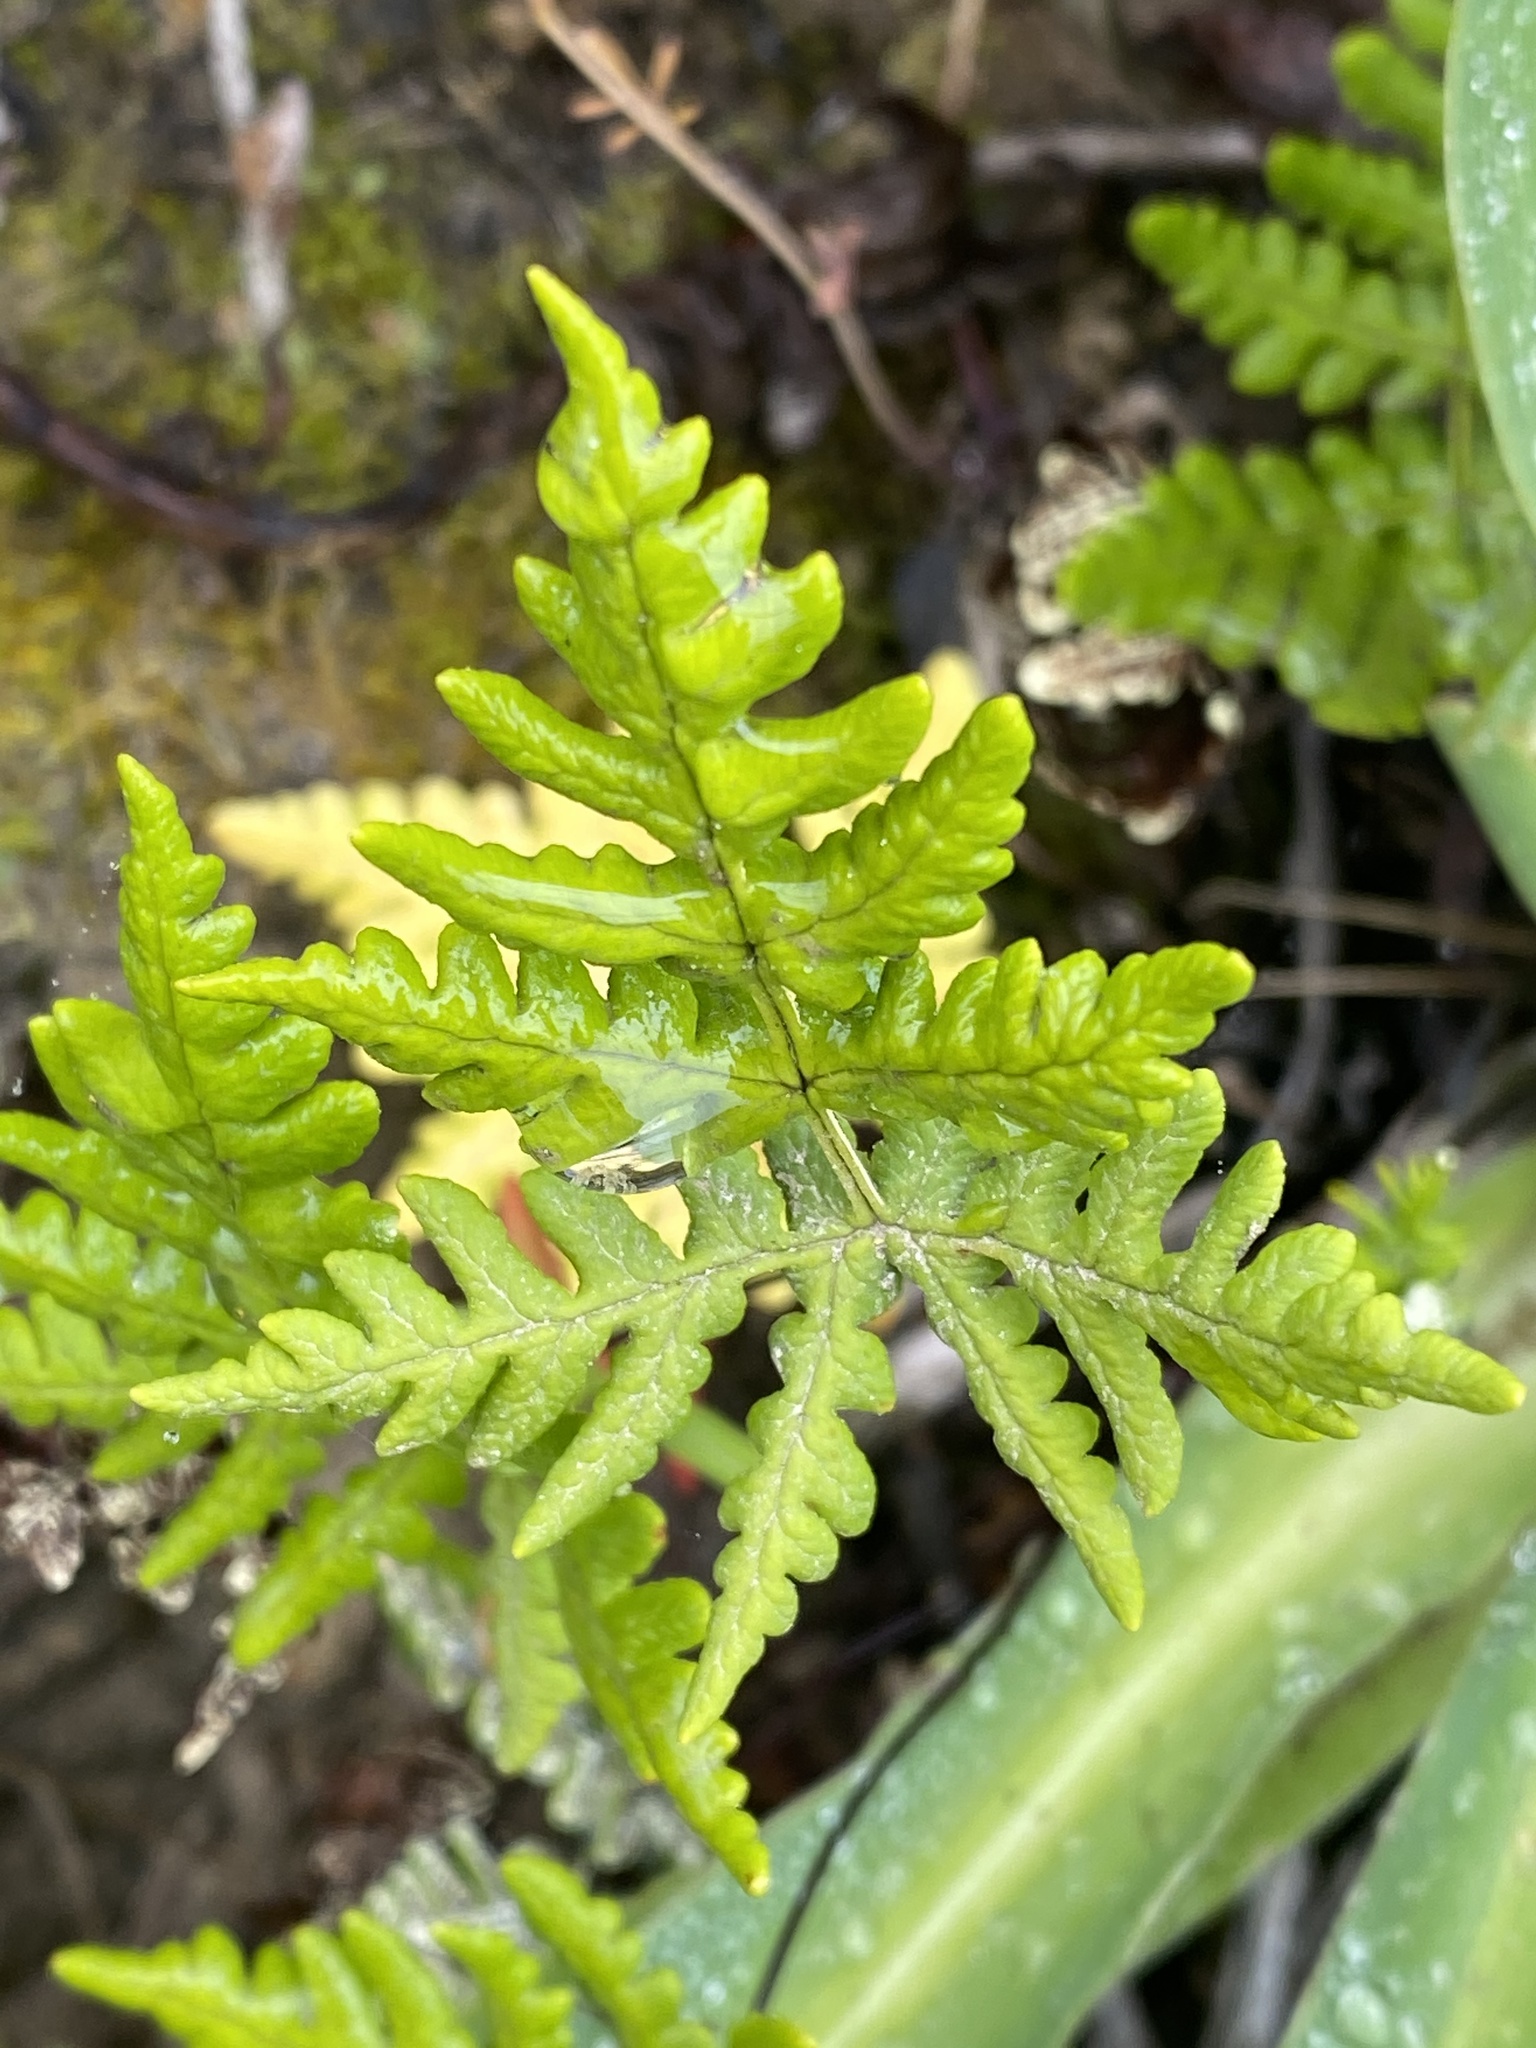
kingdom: Plantae
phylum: Tracheophyta
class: Polypodiopsida
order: Polypodiales
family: Pteridaceae
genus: Pentagramma
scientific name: Pentagramma triangularis
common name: Gold fern
